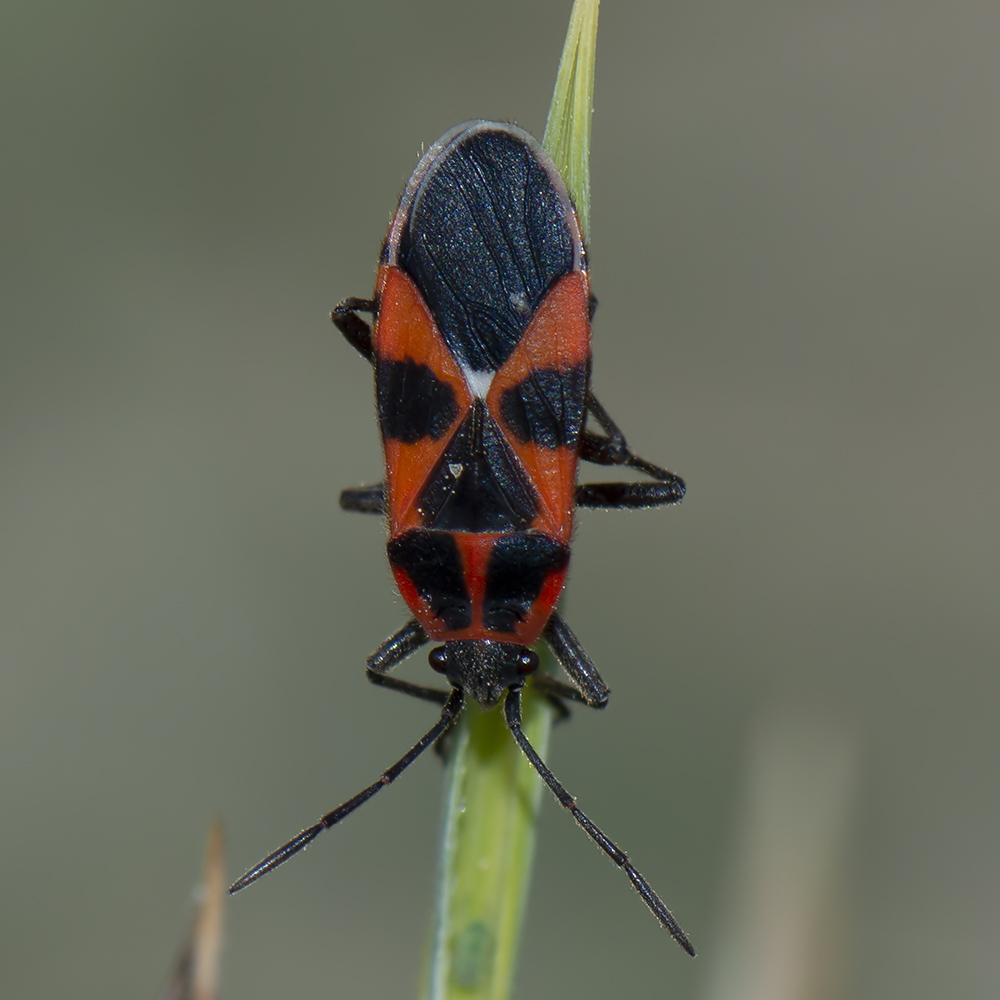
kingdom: Animalia
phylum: Arthropoda
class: Insecta
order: Hemiptera
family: Lygaeidae
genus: Tropidothorax
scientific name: Tropidothorax leucopterus
